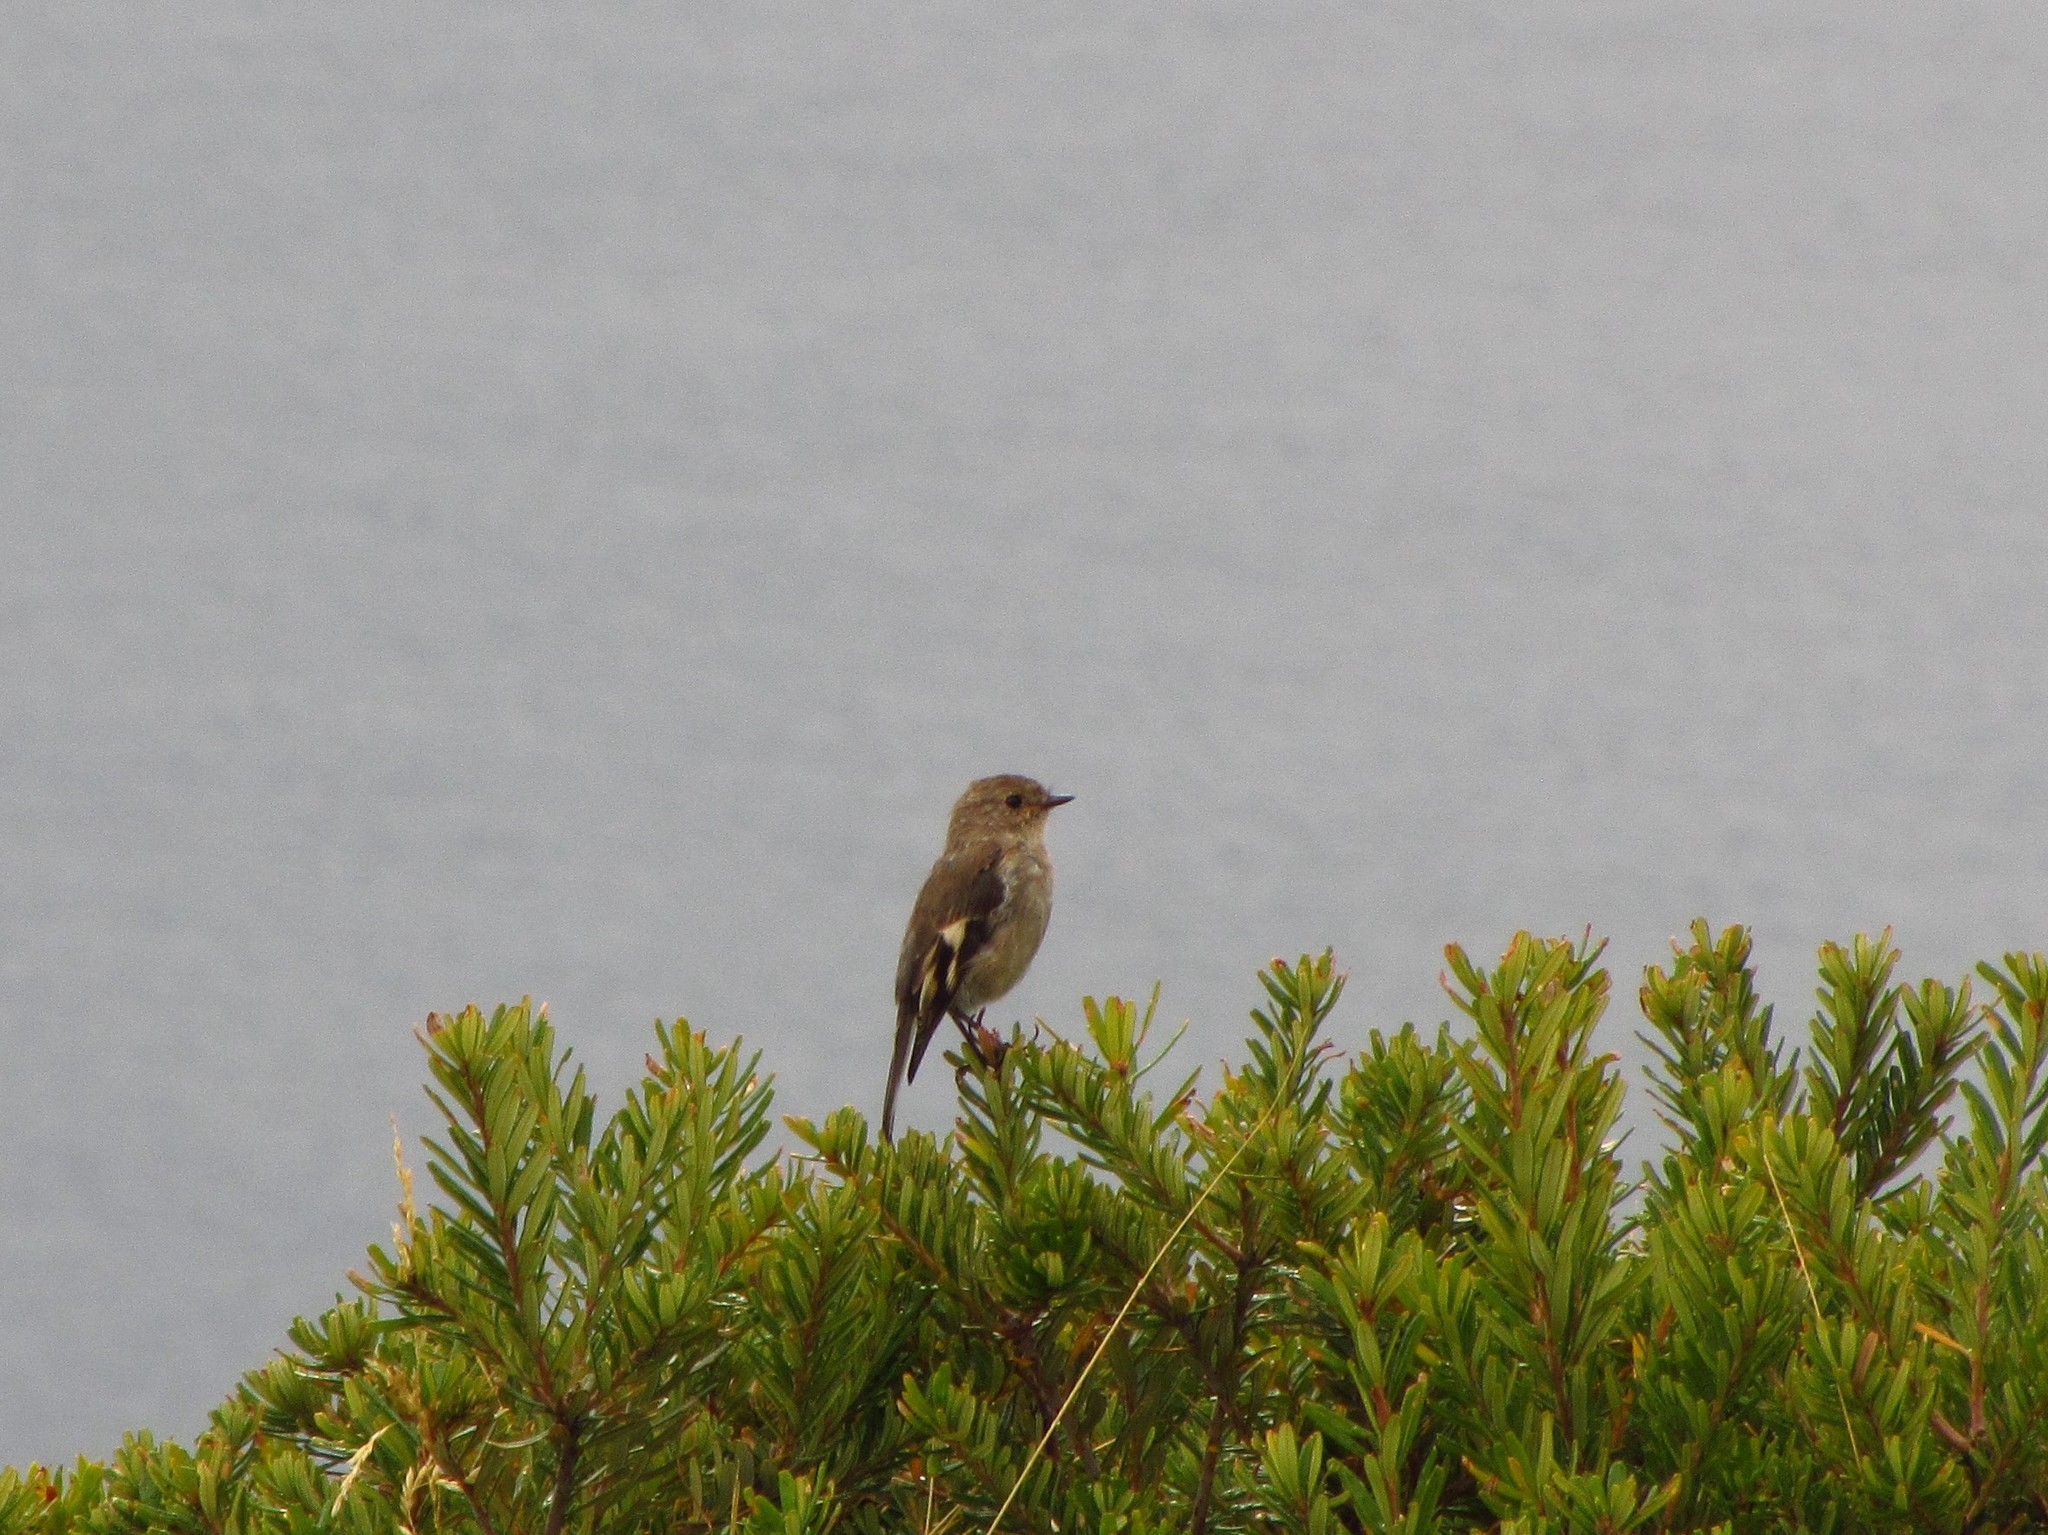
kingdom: Animalia
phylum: Chordata
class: Aves
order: Passeriformes
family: Petroicidae
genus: Petroica
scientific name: Petroica phoenicea
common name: Flame robin
